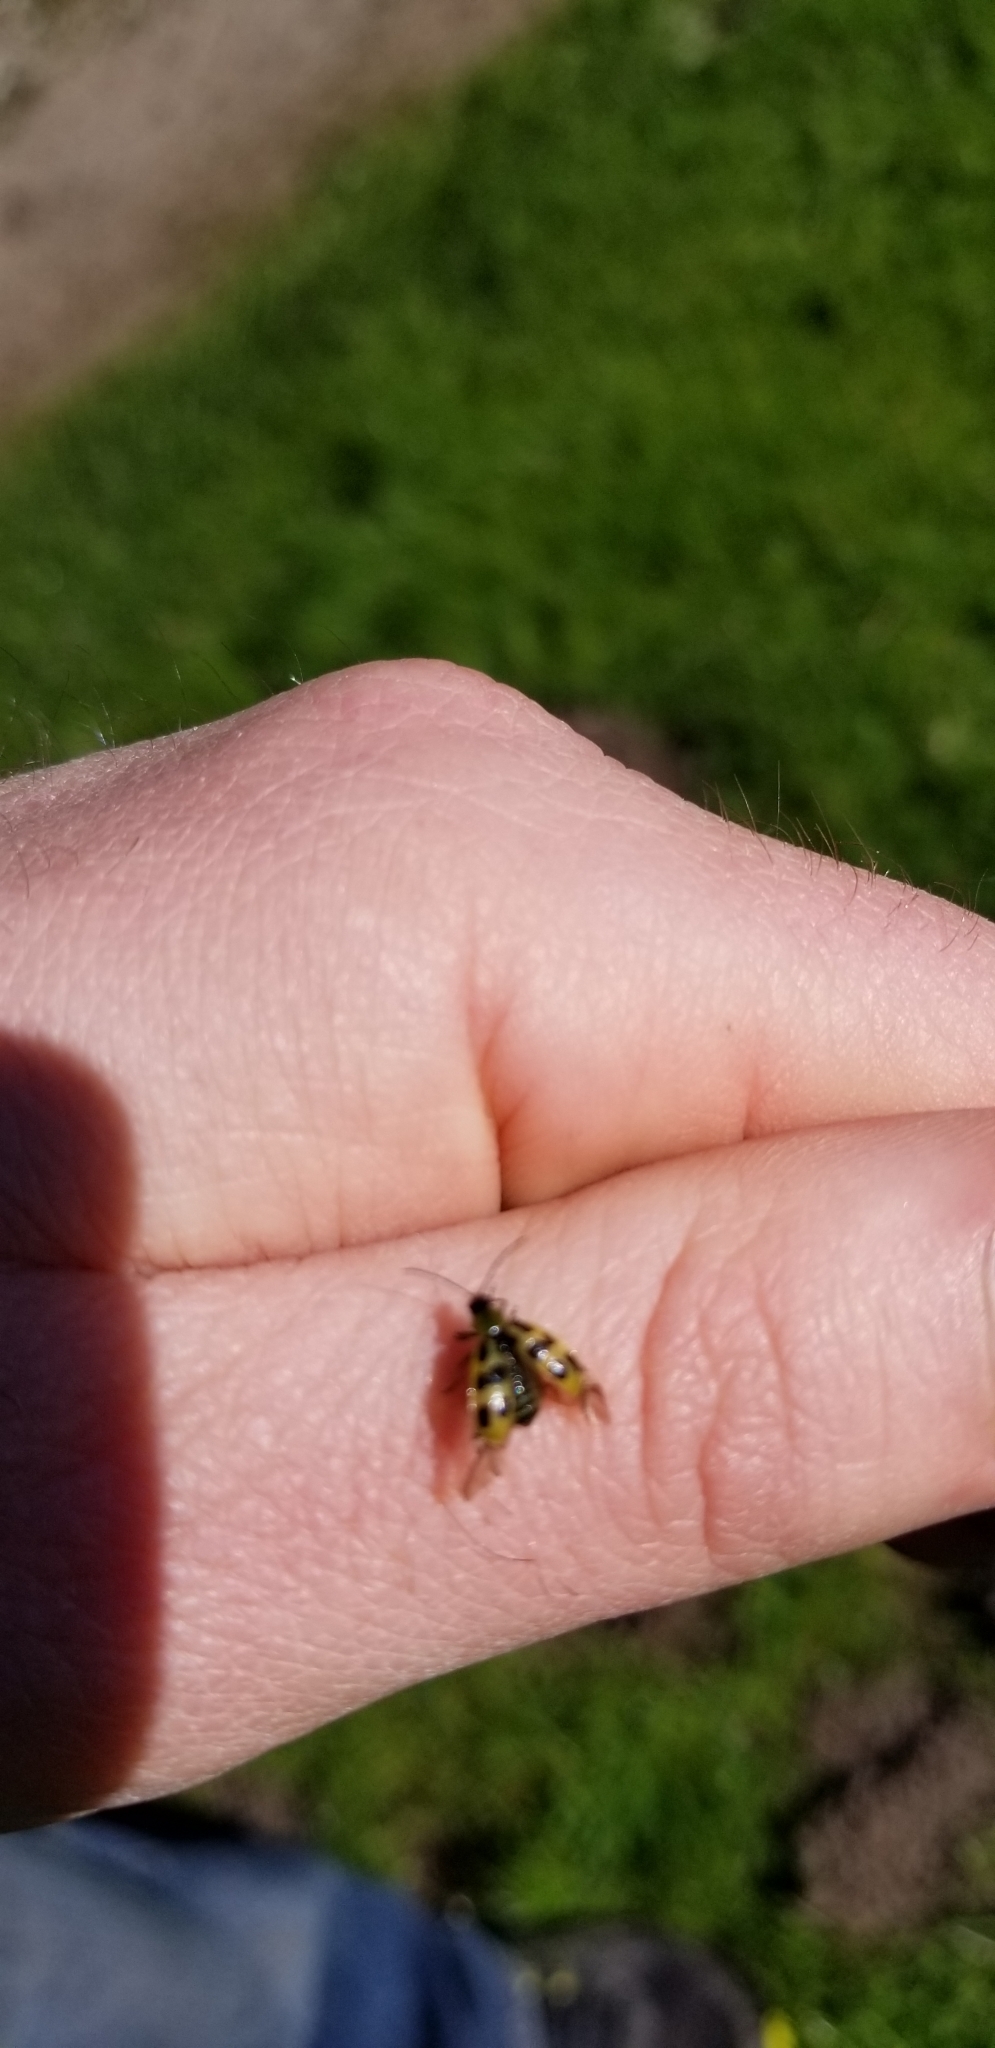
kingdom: Animalia
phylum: Arthropoda
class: Insecta
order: Coleoptera
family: Chrysomelidae
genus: Diabrotica
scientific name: Diabrotica undecimpunctata
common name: Spotted cucumber beetle
